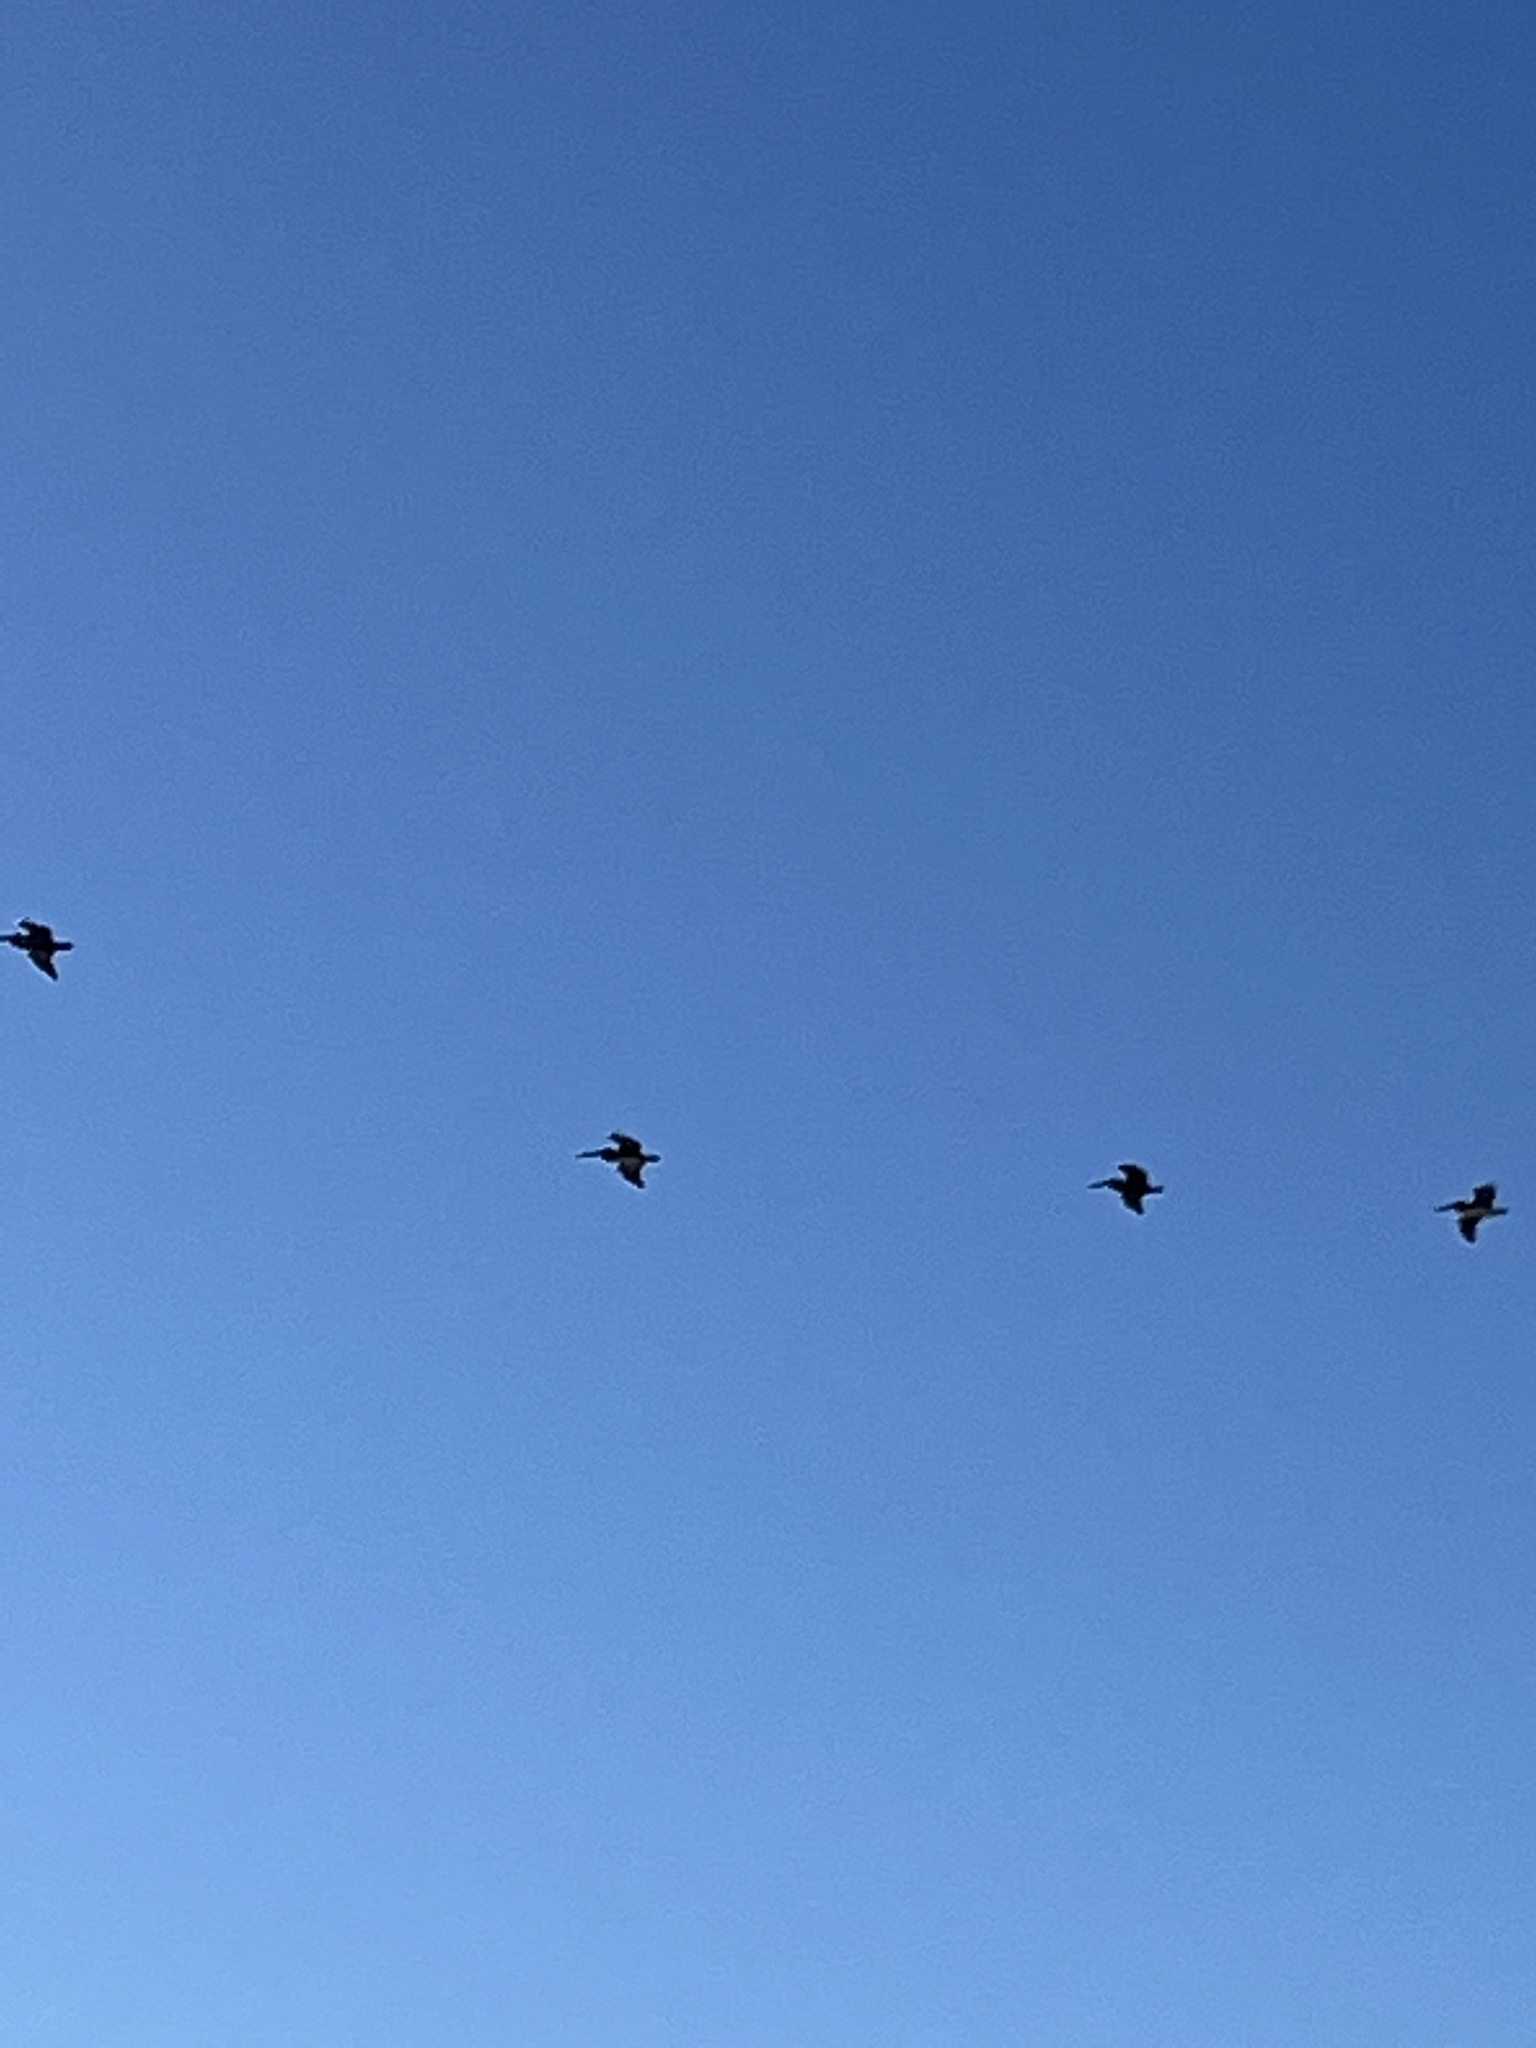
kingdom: Animalia
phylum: Chordata
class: Aves
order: Pelecaniformes
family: Pelecanidae
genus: Pelecanus
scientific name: Pelecanus occidentalis
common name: Brown pelican
